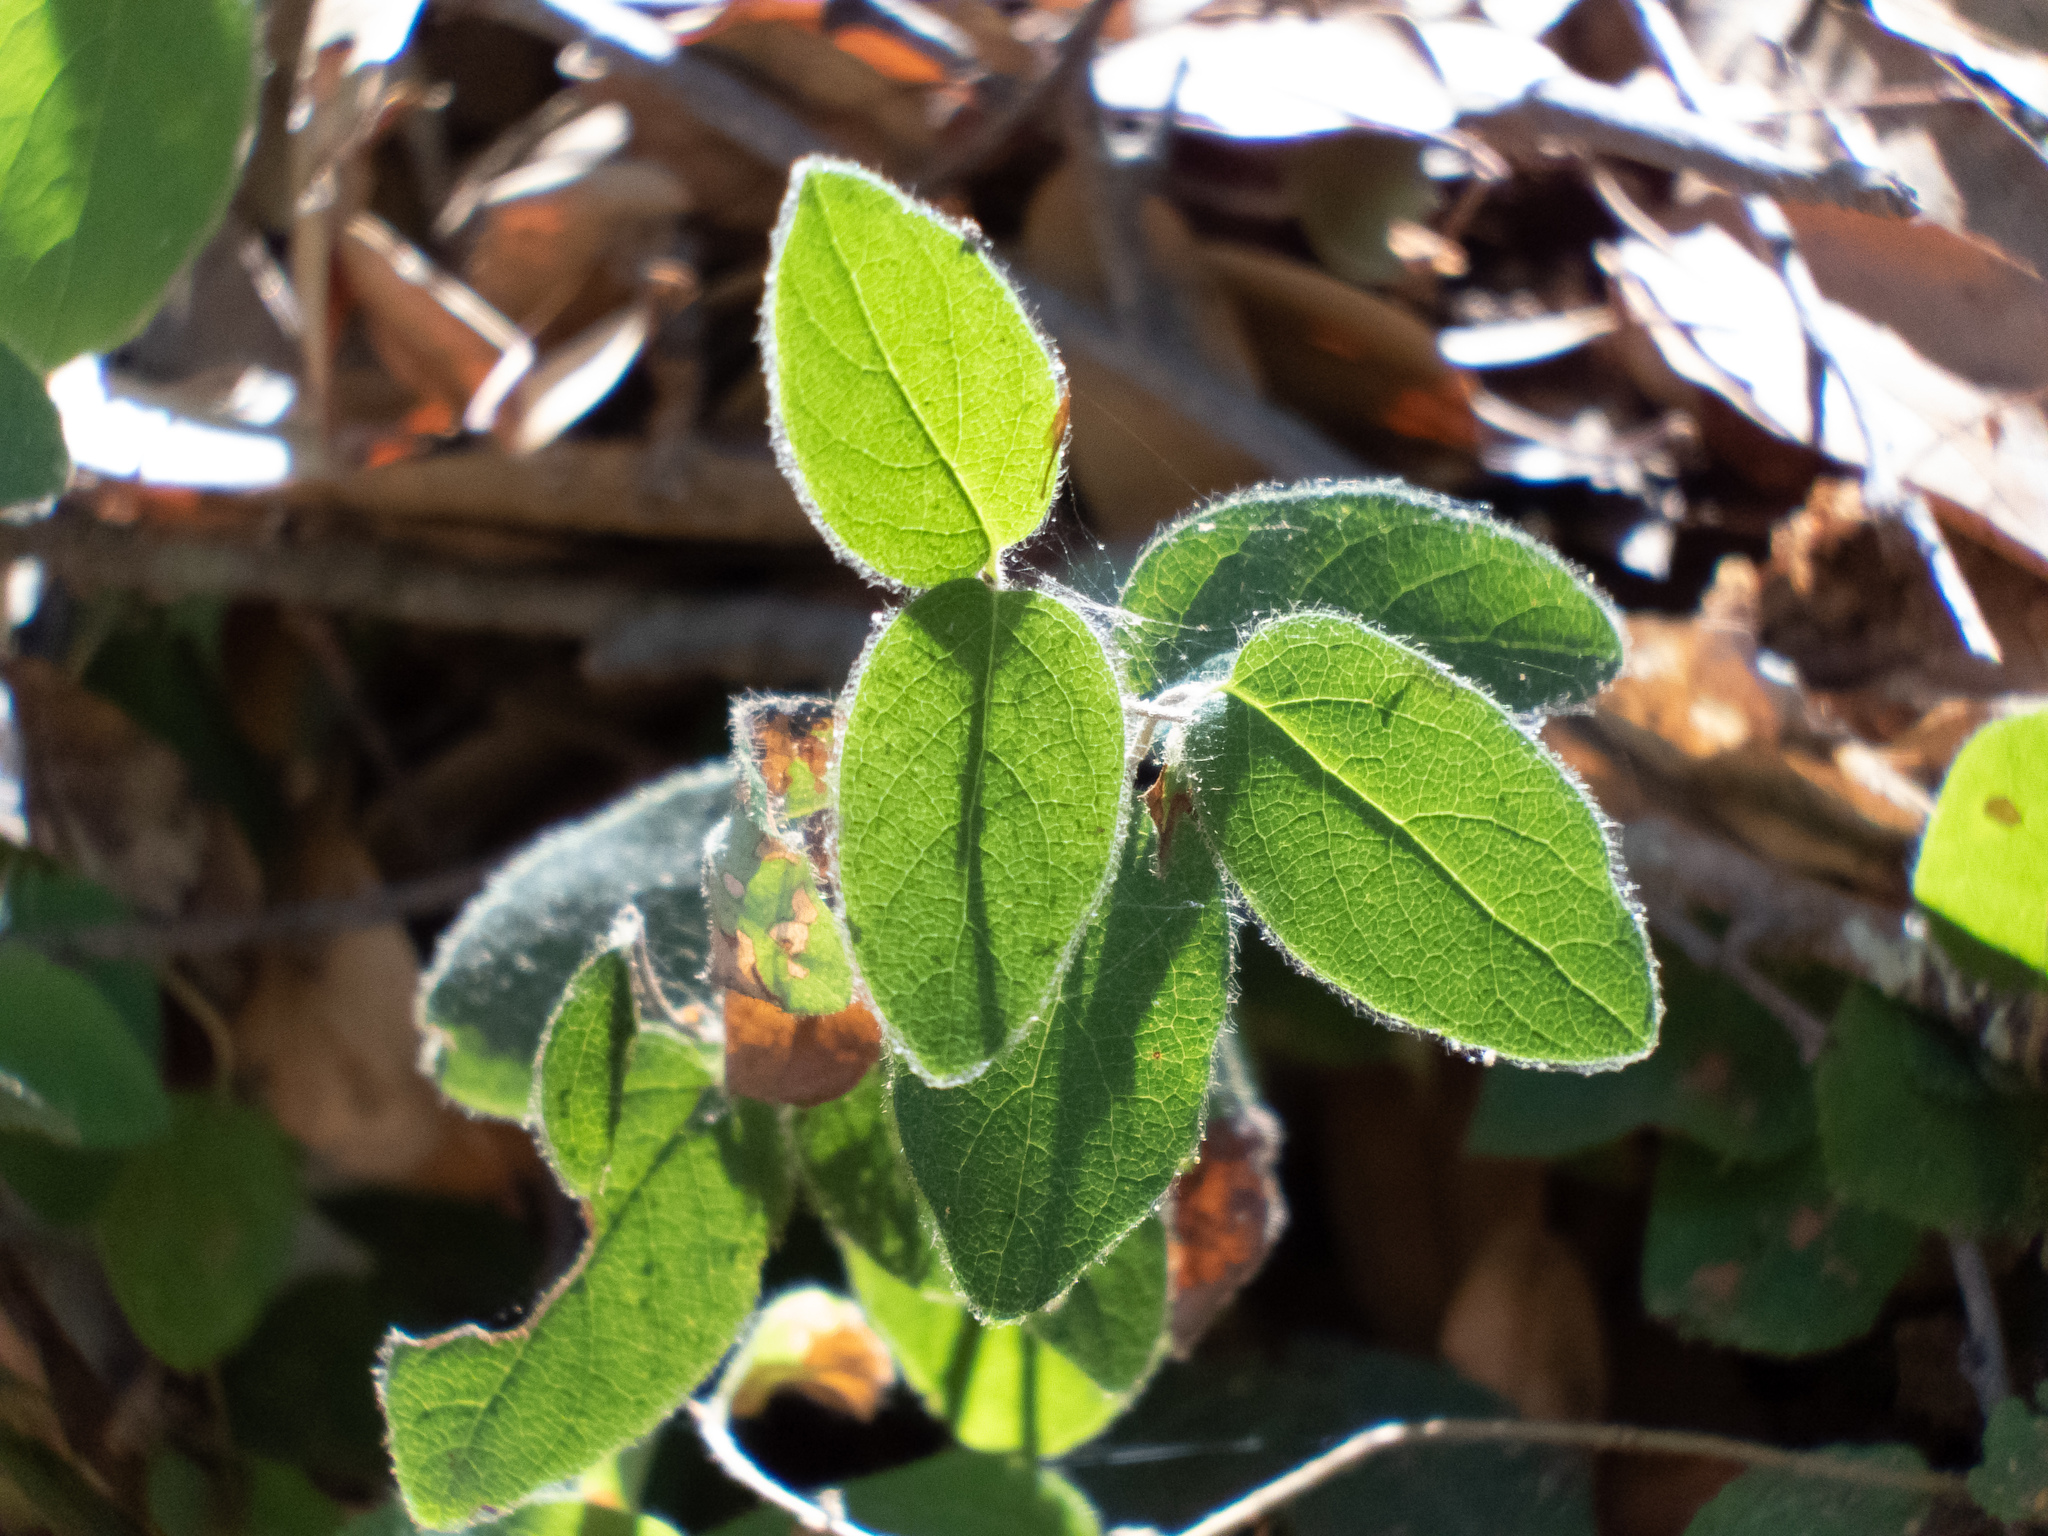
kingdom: Plantae
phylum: Tracheophyta
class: Magnoliopsida
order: Dipsacales
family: Caprifoliaceae
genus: Lonicera
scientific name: Lonicera hispidula
